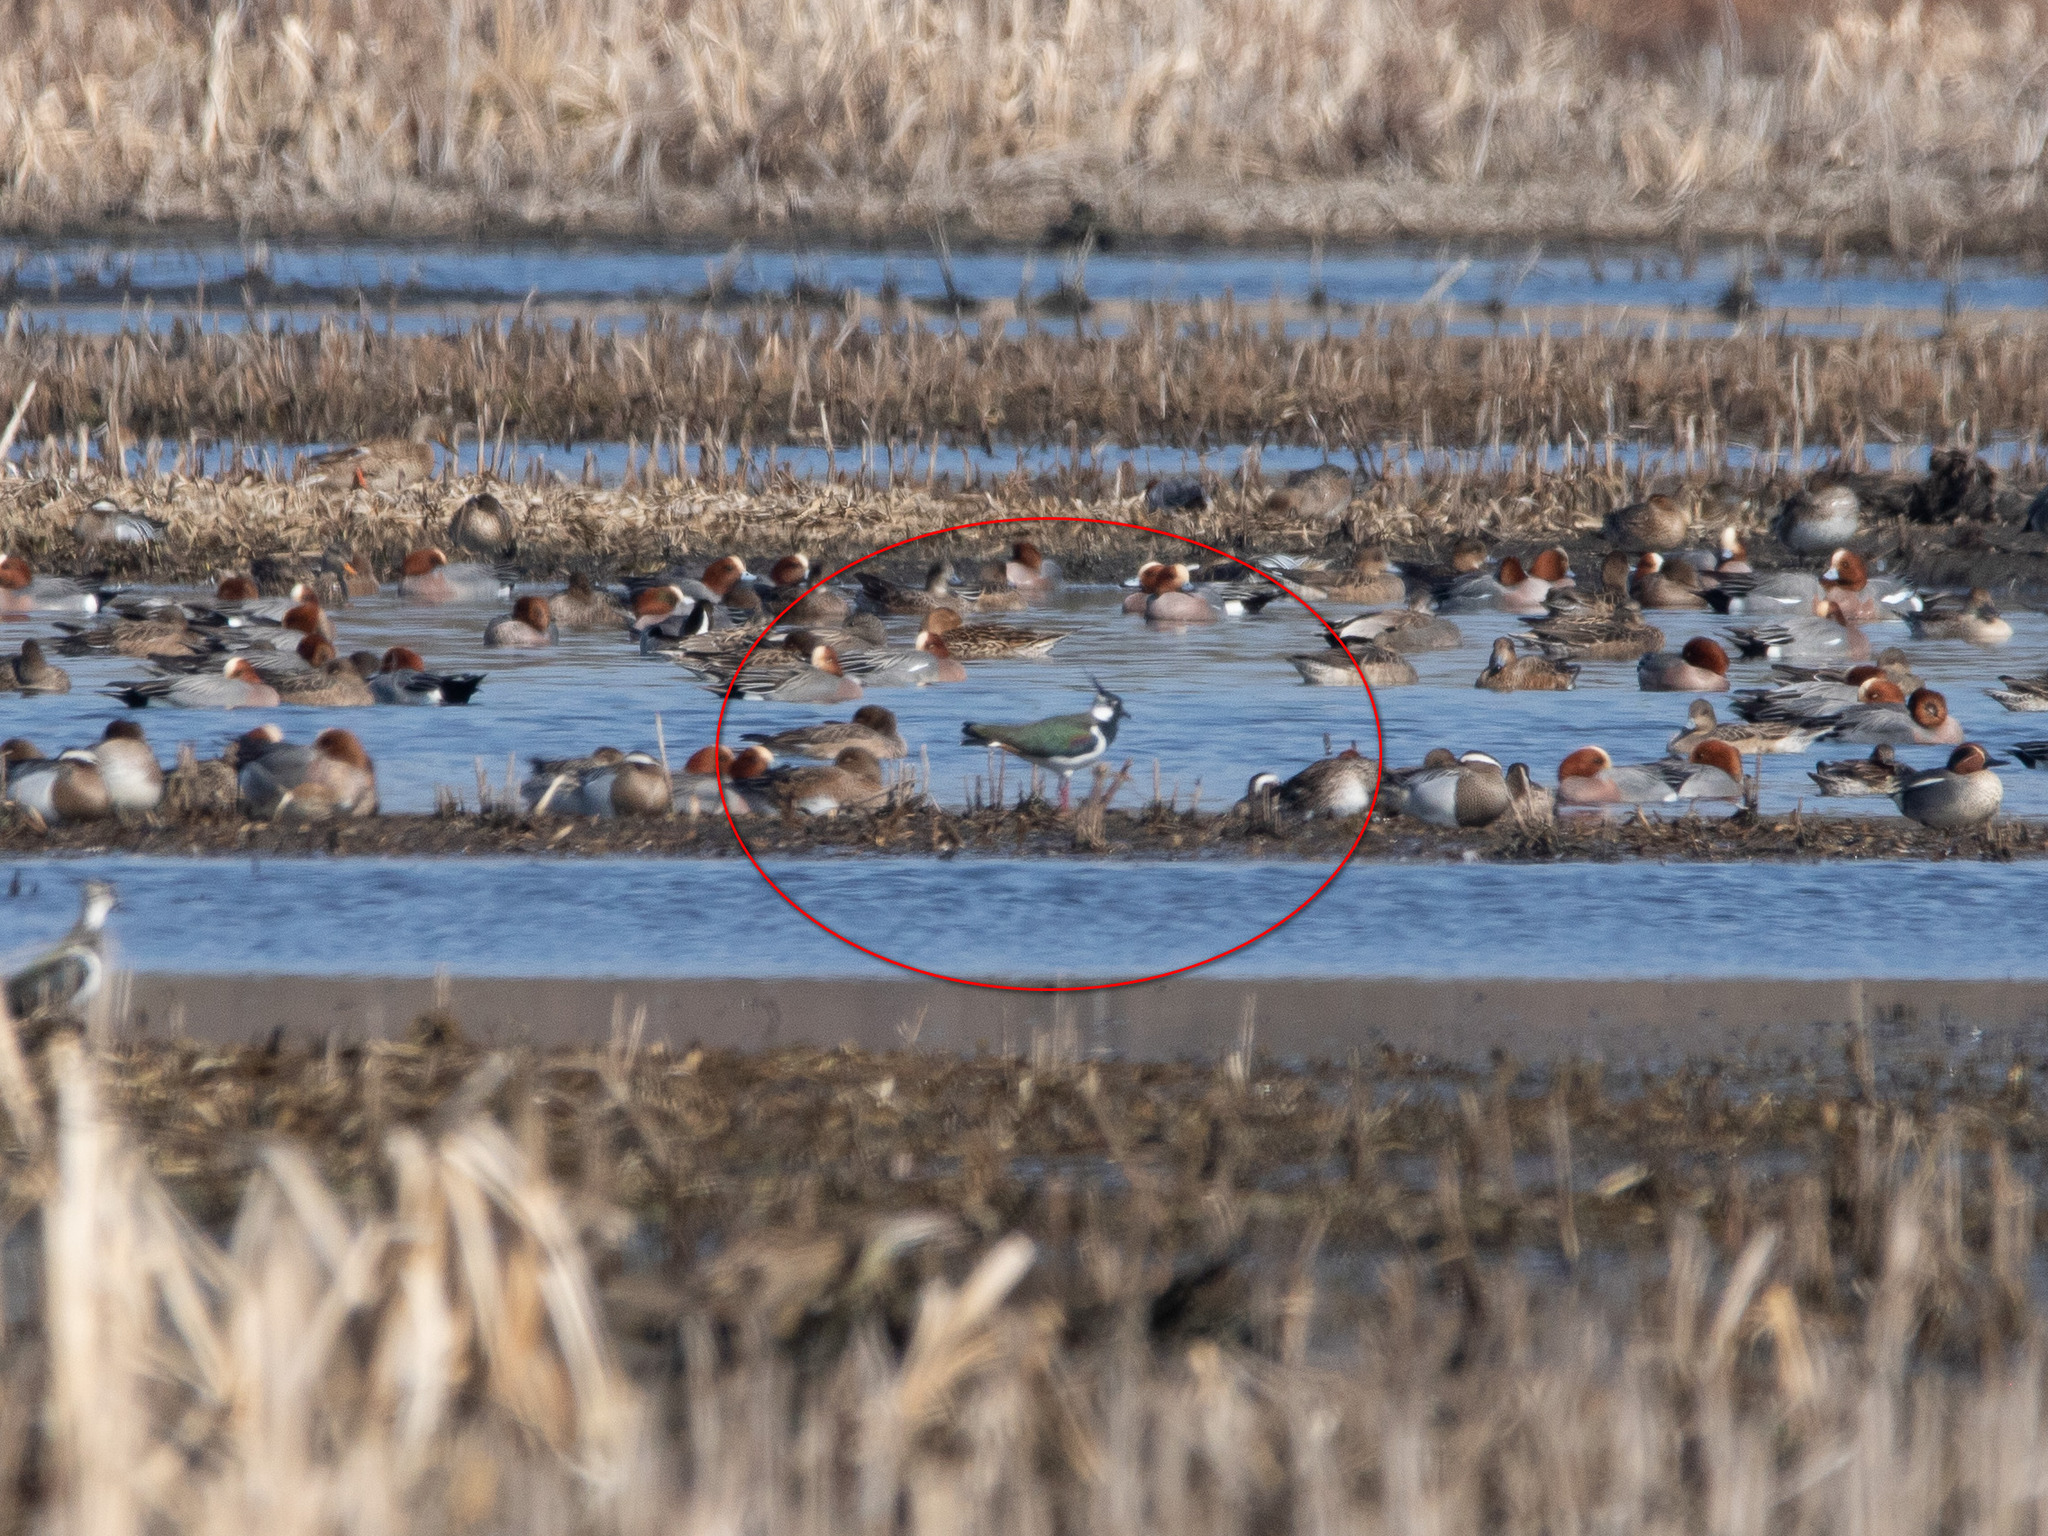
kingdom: Animalia
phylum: Chordata
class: Aves
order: Charadriiformes
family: Charadriidae
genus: Vanellus
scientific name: Vanellus vanellus
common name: Northern lapwing
